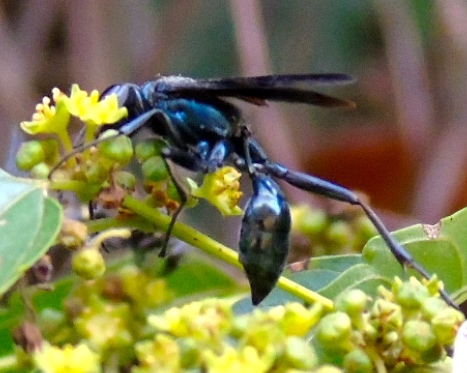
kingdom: Animalia
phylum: Arthropoda
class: Insecta
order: Hymenoptera
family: Sphecidae
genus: Chalybion
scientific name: Chalybion
